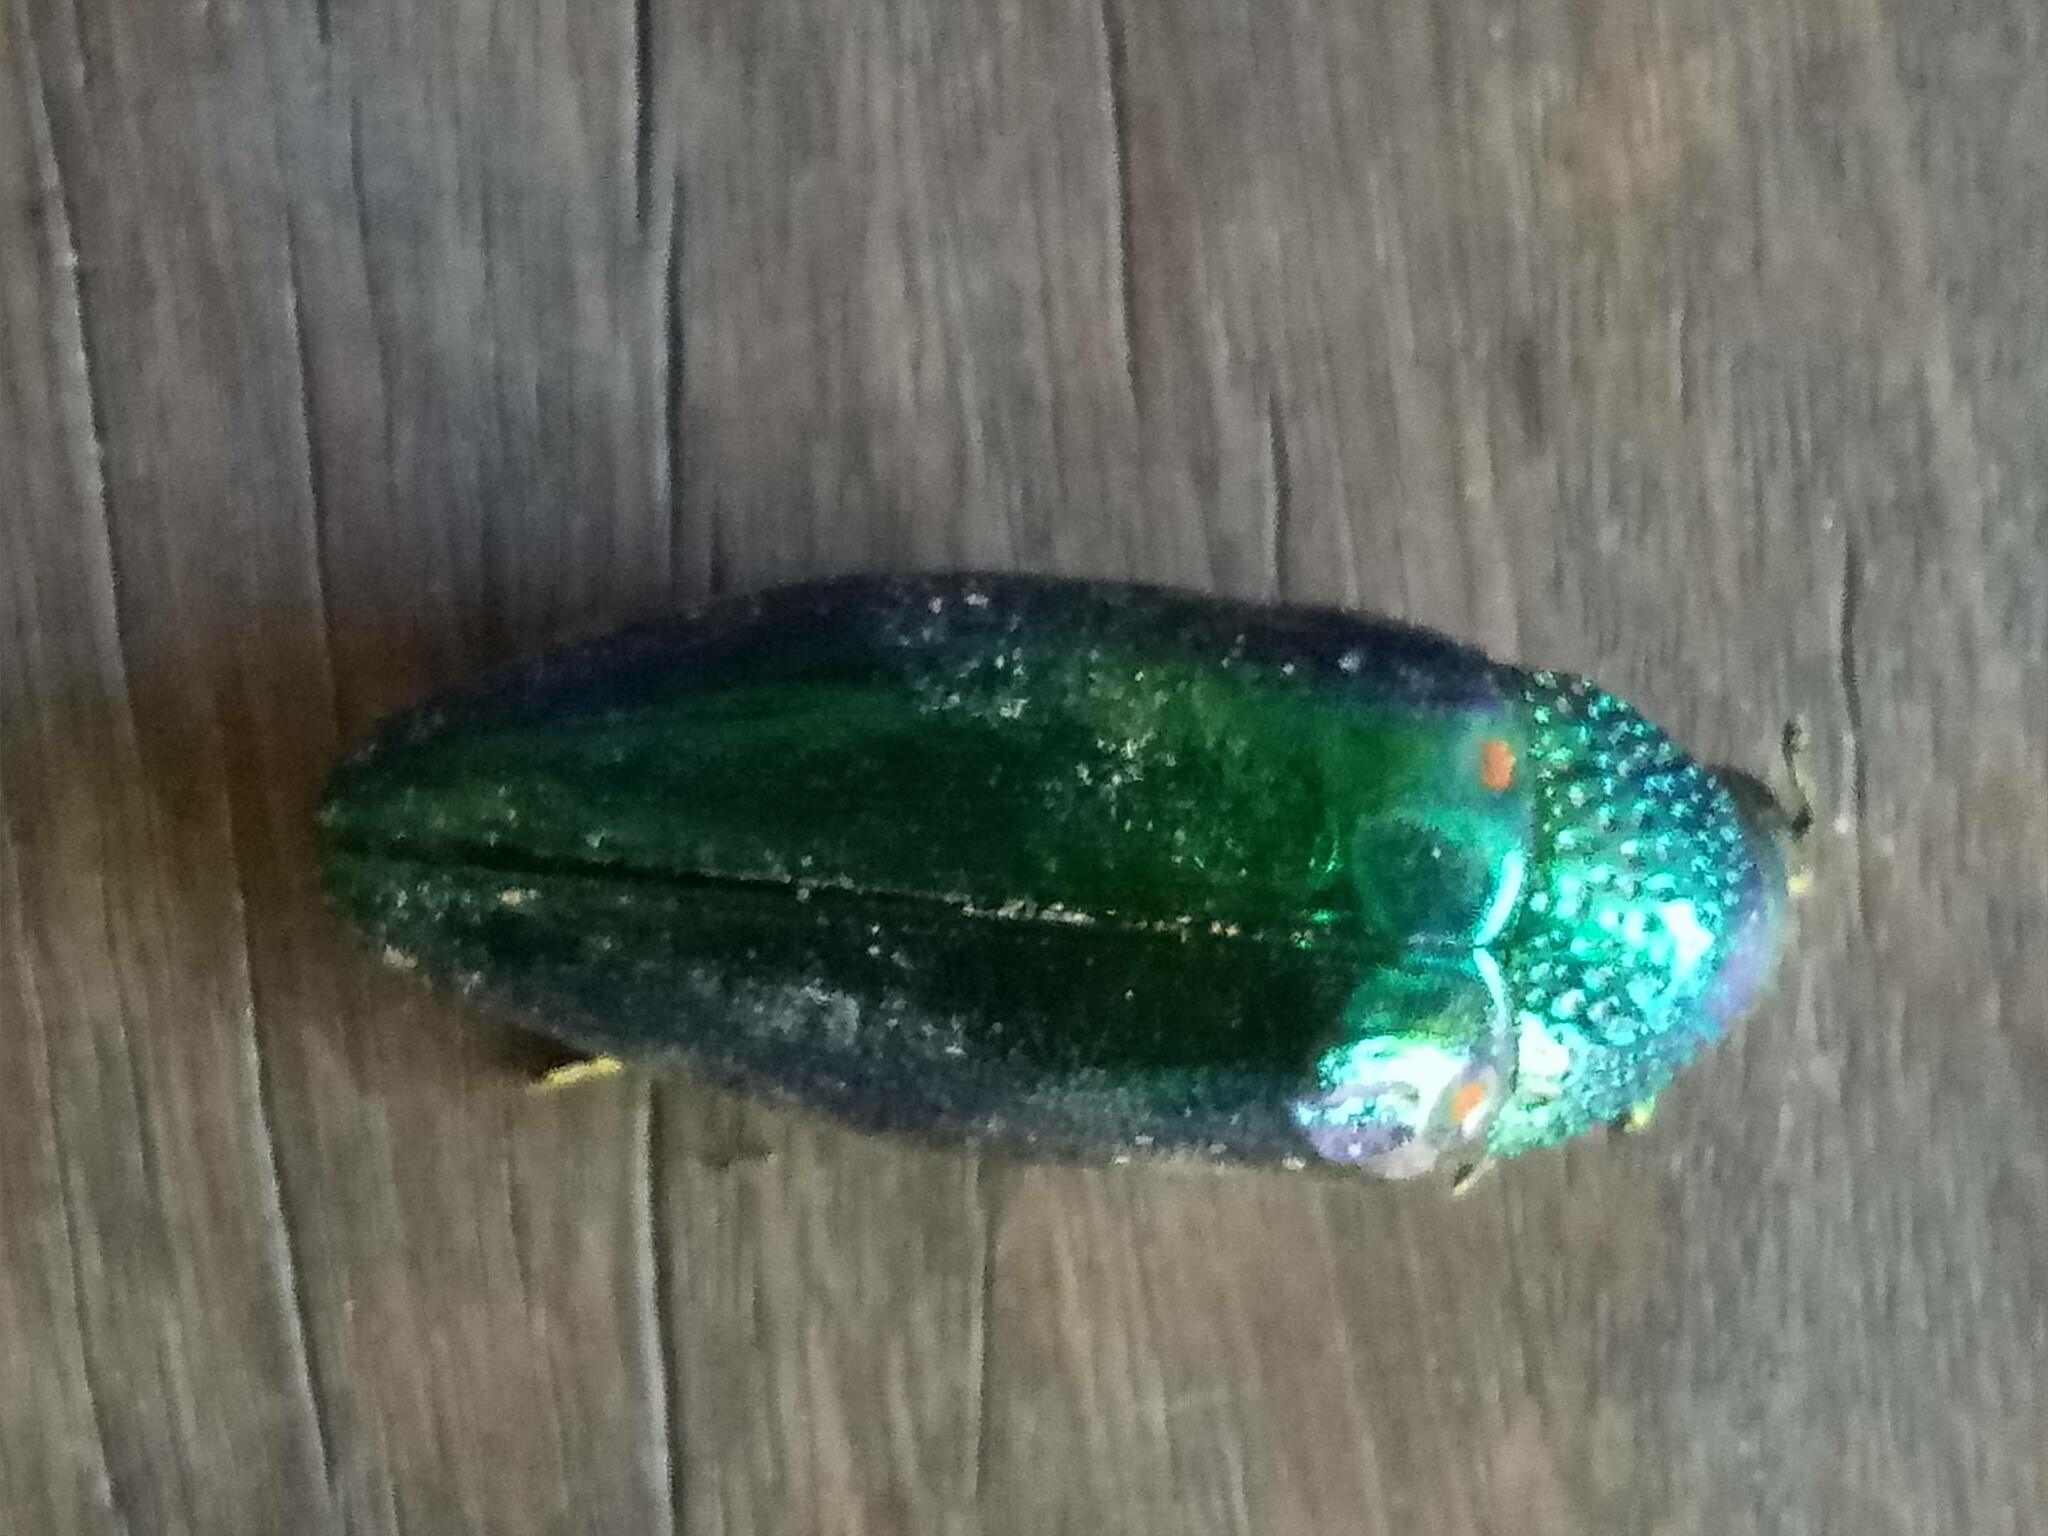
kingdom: Animalia
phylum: Arthropoda
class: Insecta
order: Coleoptera
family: Buprestidae
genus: Sternocera
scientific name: Sternocera aequisignata
